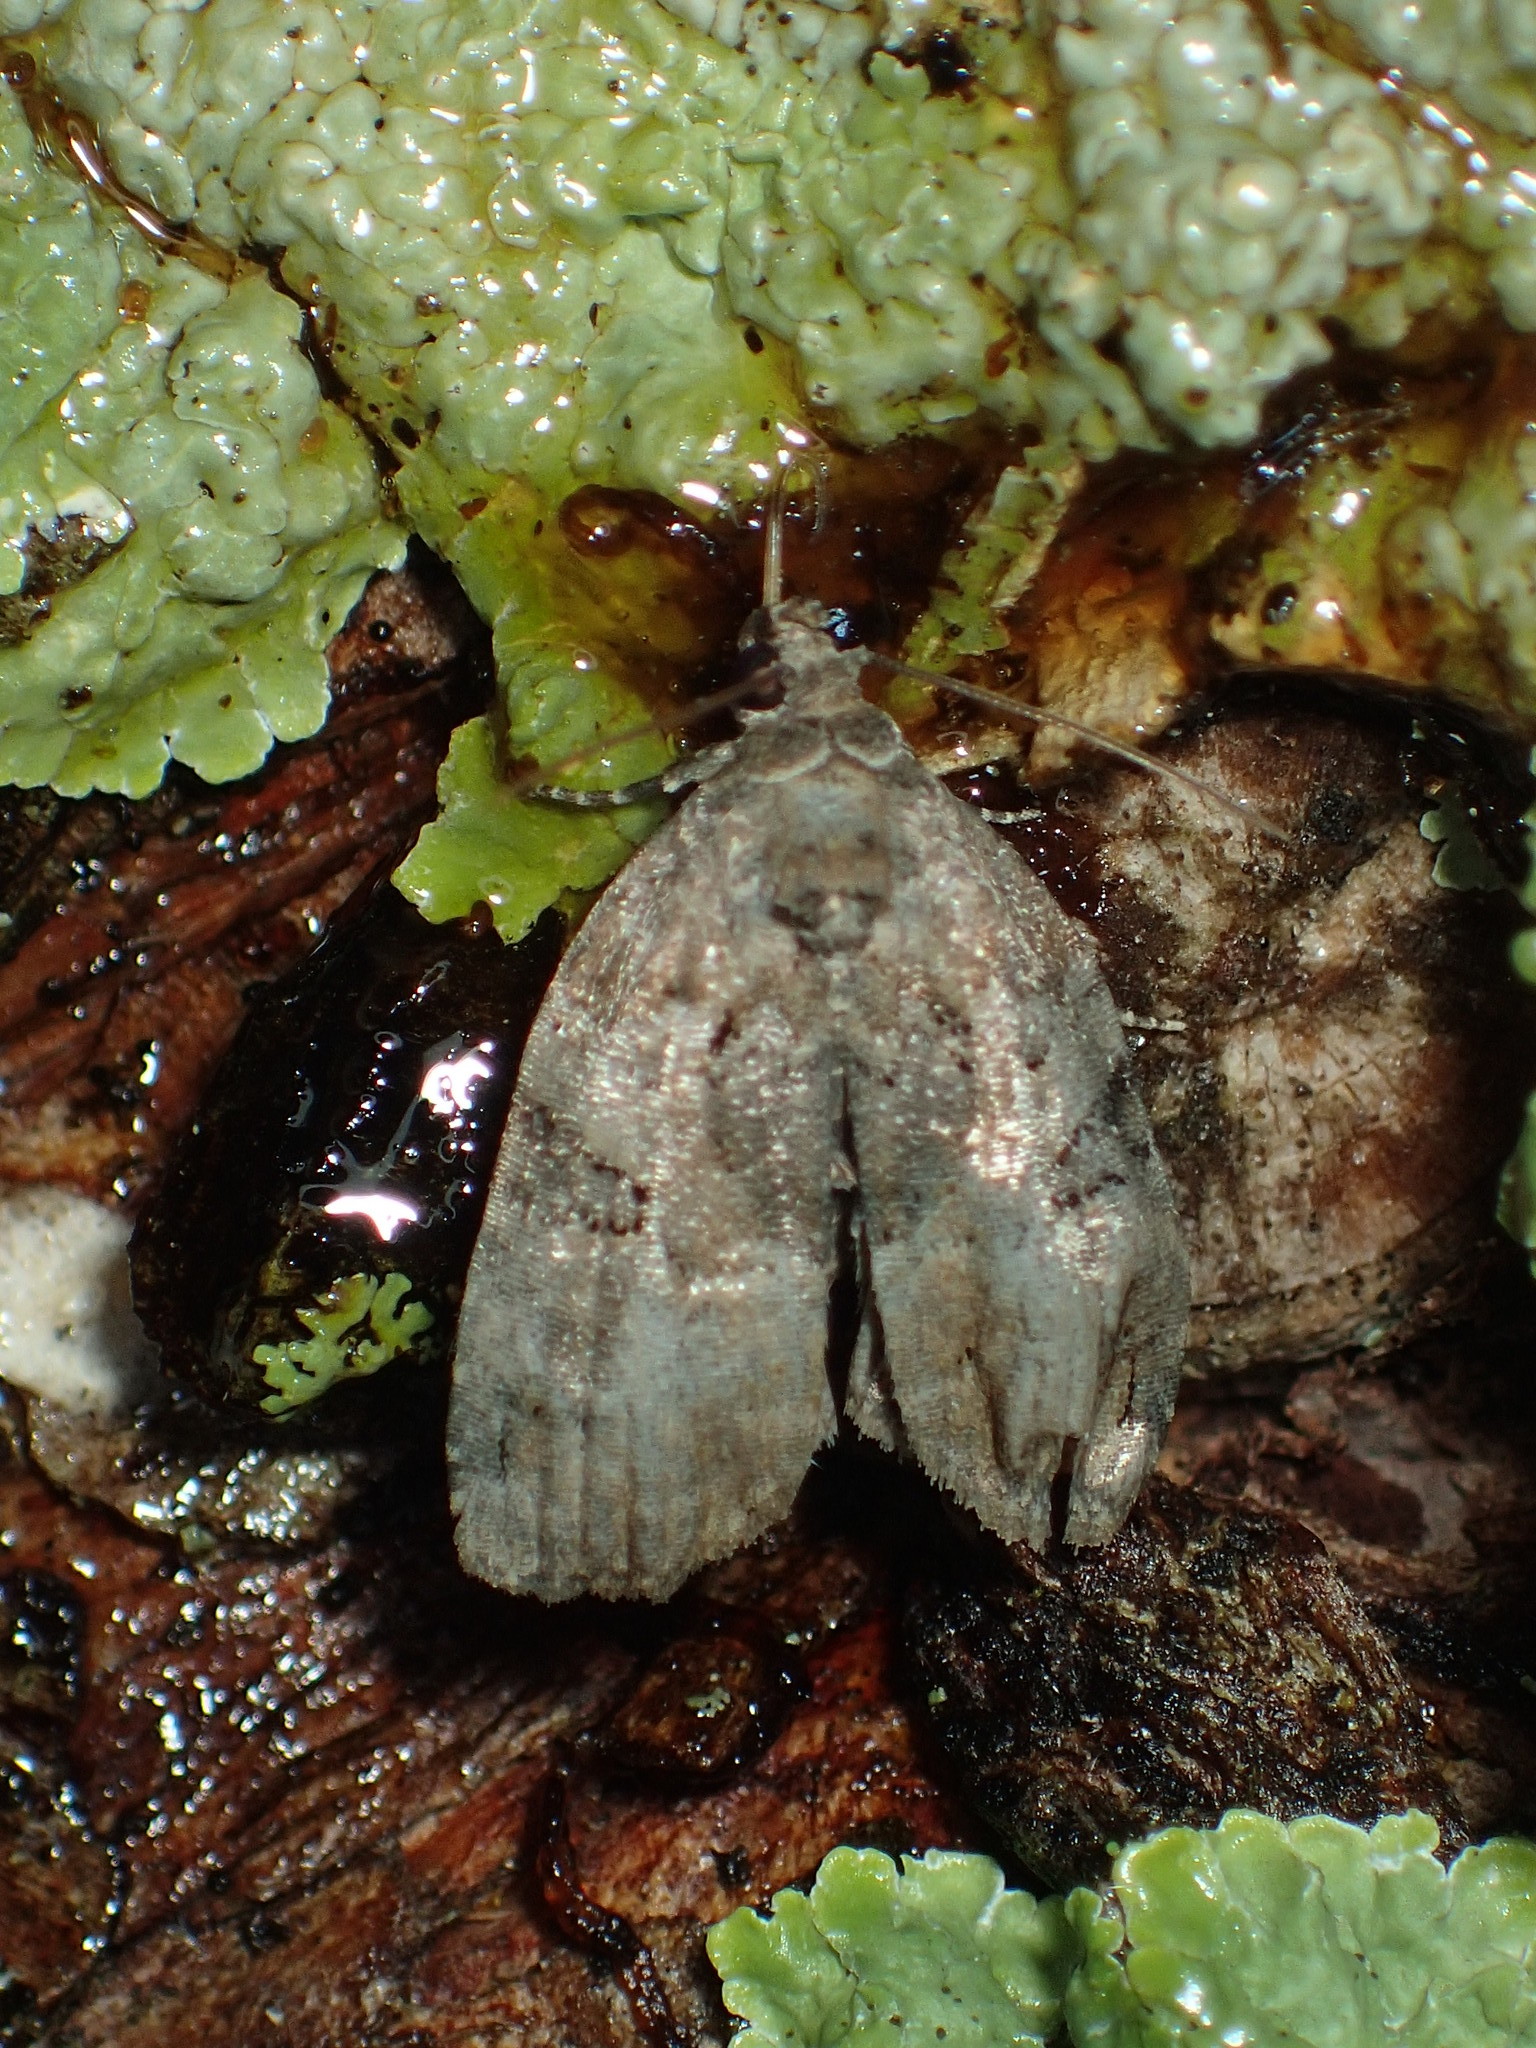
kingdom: Animalia
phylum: Arthropoda
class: Insecta
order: Lepidoptera
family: Noctuidae
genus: Pseudeustrotia
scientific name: Pseudeustrotia indeterminata
